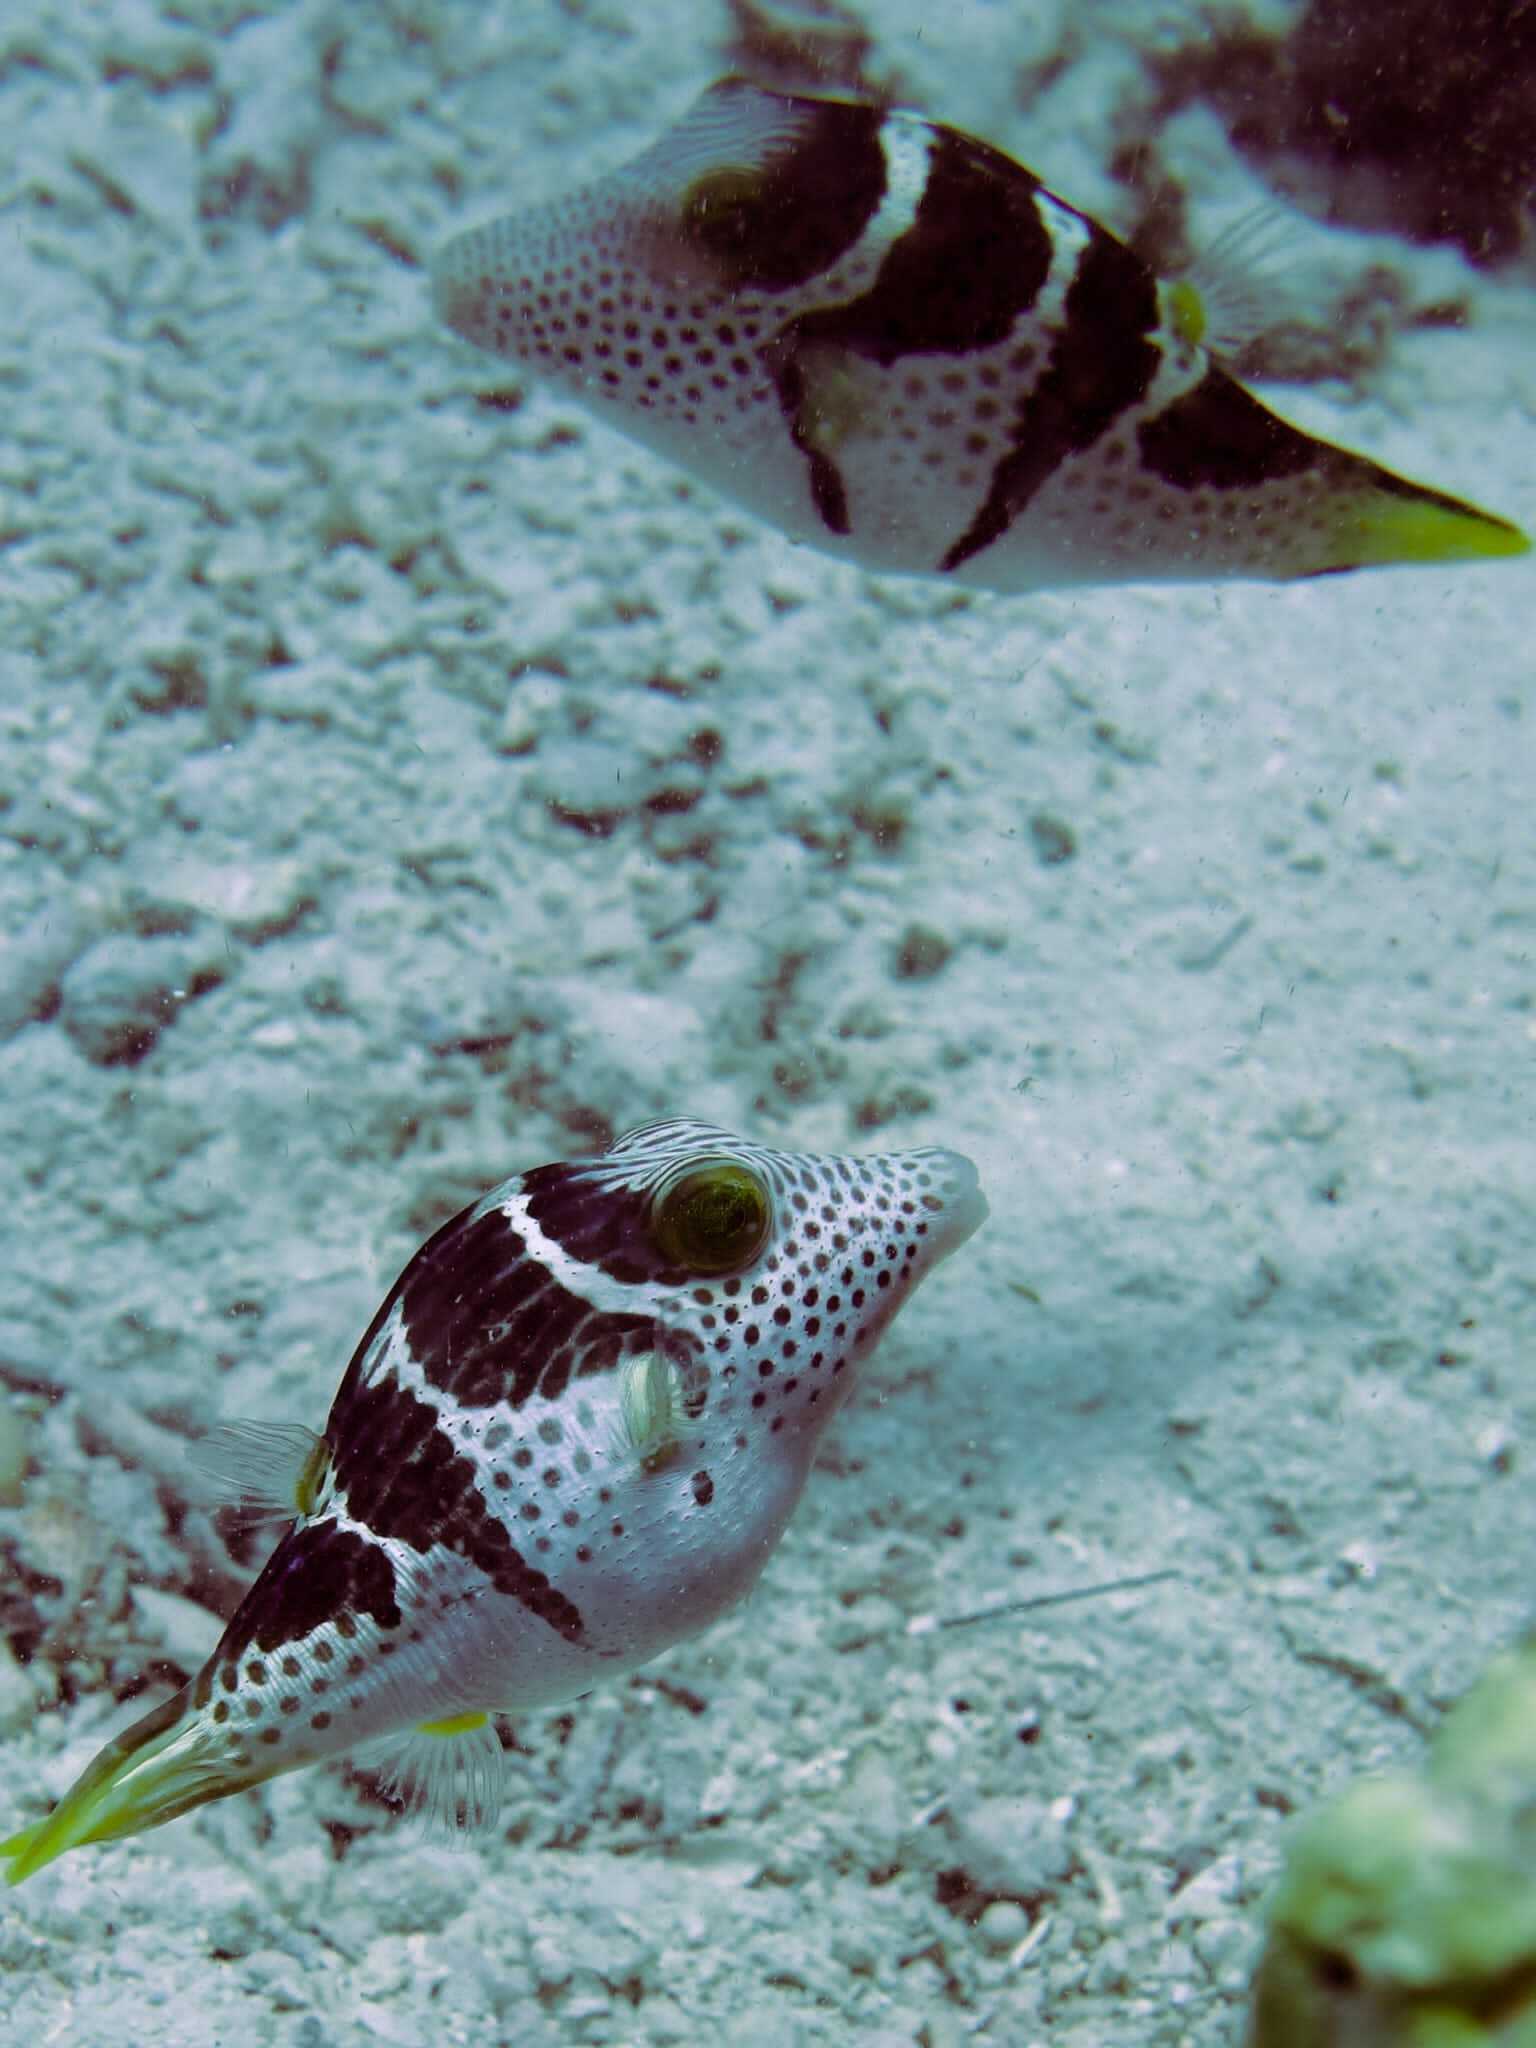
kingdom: Animalia
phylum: Chordata
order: Tetraodontiformes
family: Tetraodontidae
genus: Canthigaster
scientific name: Canthigaster valentini
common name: Banded toby
